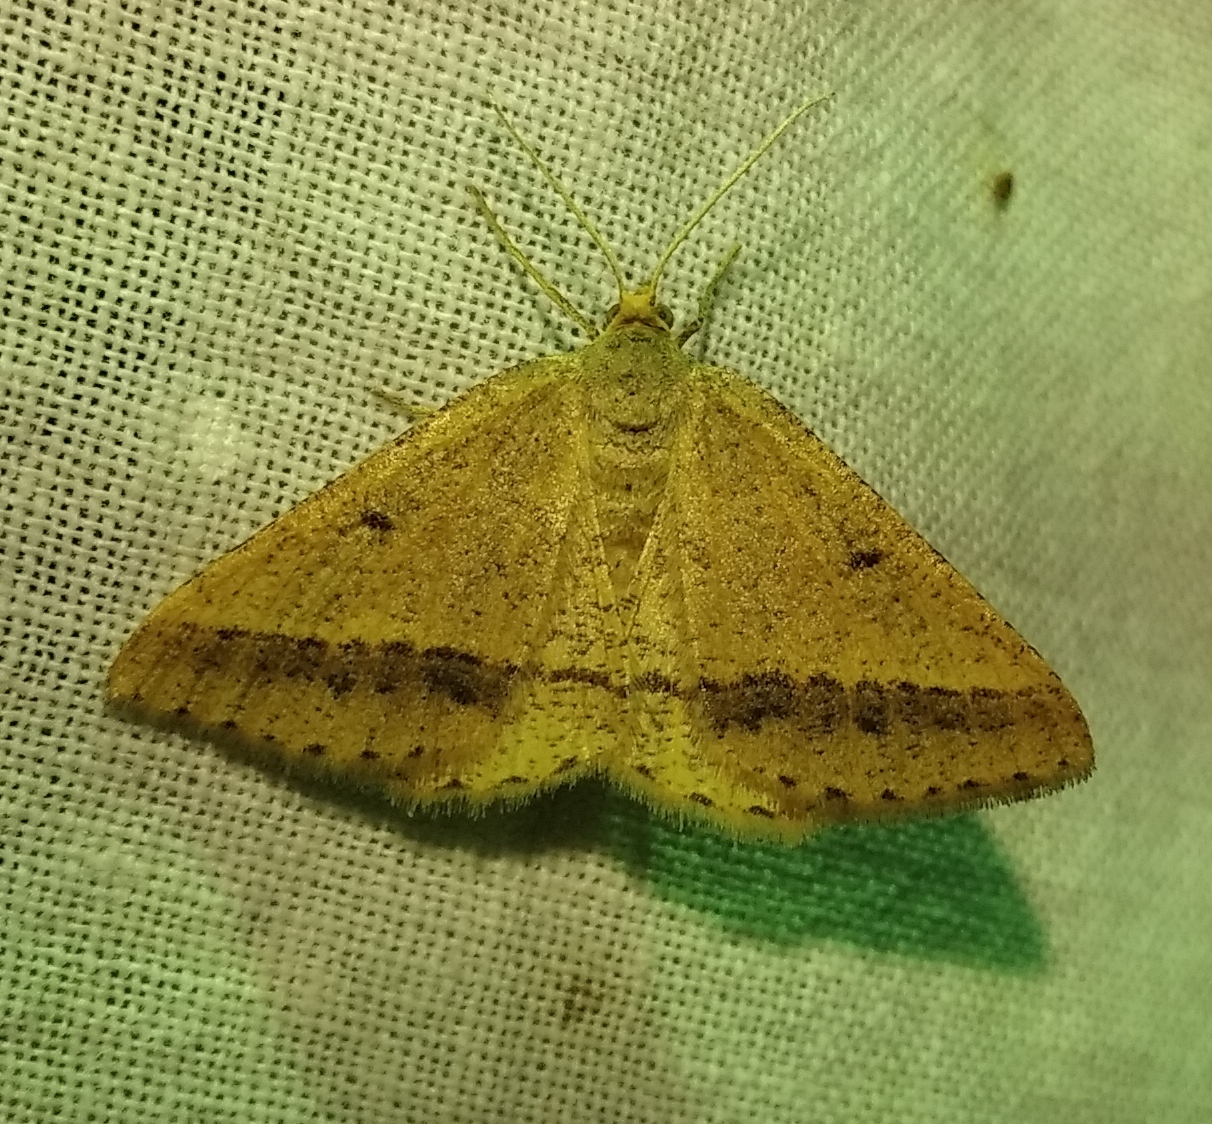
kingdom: Animalia
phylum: Arthropoda
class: Insecta
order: Lepidoptera
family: Geometridae
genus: Tephrina
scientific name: Tephrina arenacearia
